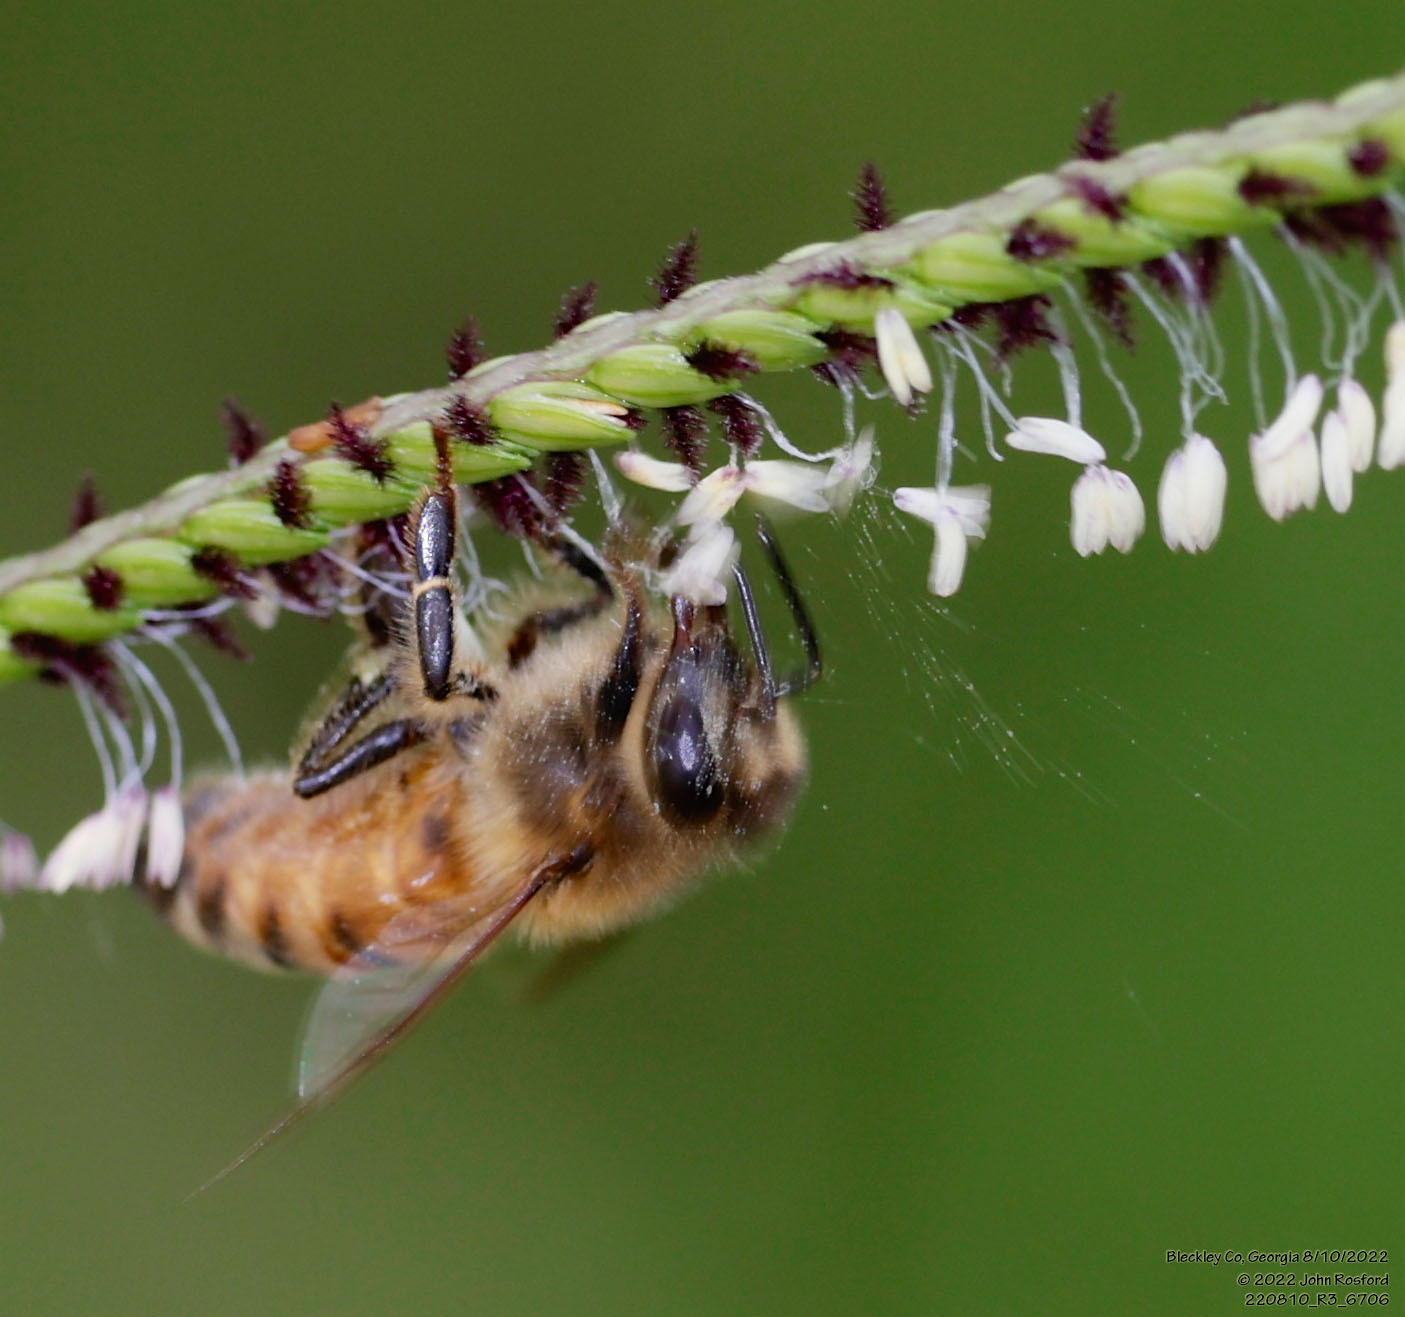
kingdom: Animalia
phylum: Arthropoda
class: Insecta
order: Hymenoptera
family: Apidae
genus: Apis
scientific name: Apis mellifera
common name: Honey bee
